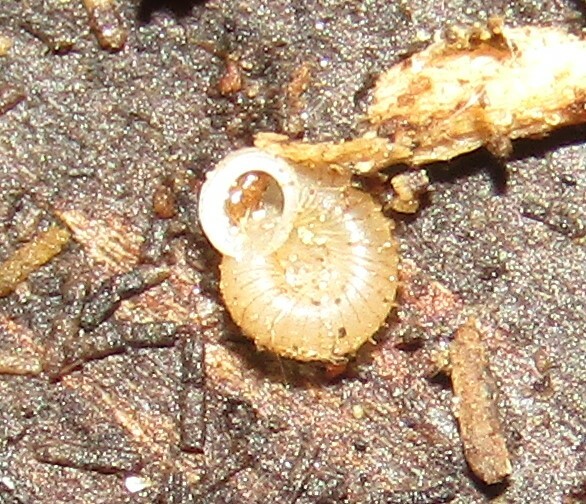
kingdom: Animalia
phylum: Mollusca
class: Gastropoda
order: Stylommatophora
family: Valloniidae
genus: Vallonia
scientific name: Vallonia costata
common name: Ribbed grass snail
